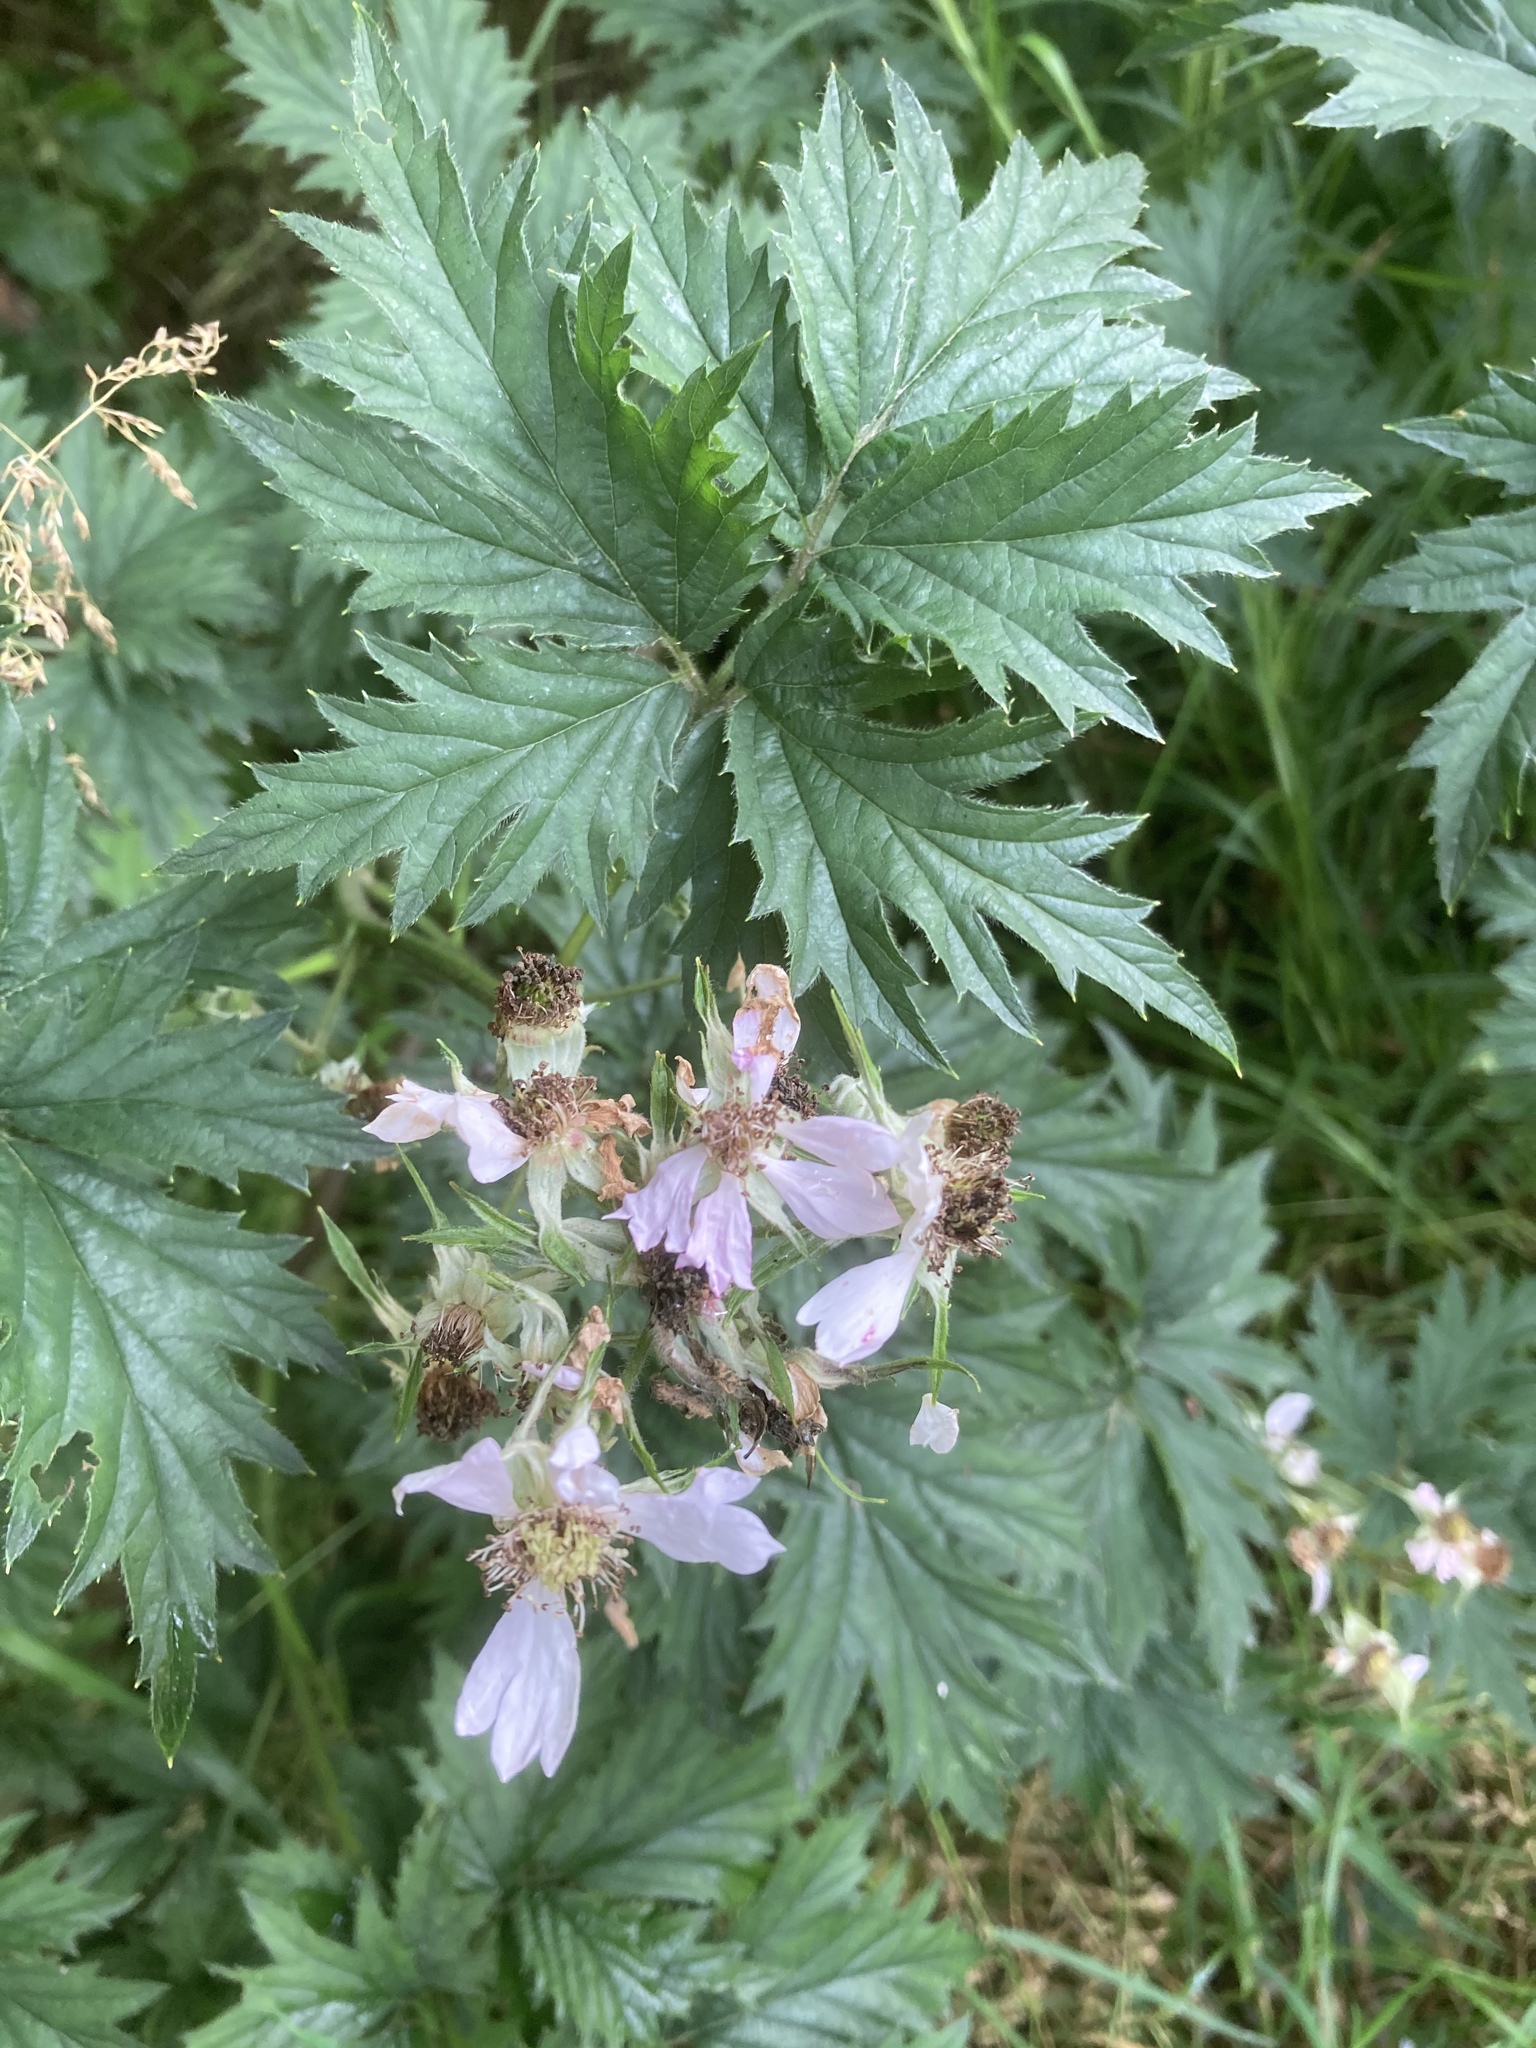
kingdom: Plantae
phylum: Tracheophyta
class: Magnoliopsida
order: Rosales
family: Rosaceae
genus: Rubus
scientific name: Rubus laciniatus
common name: Evergreen blackberry
